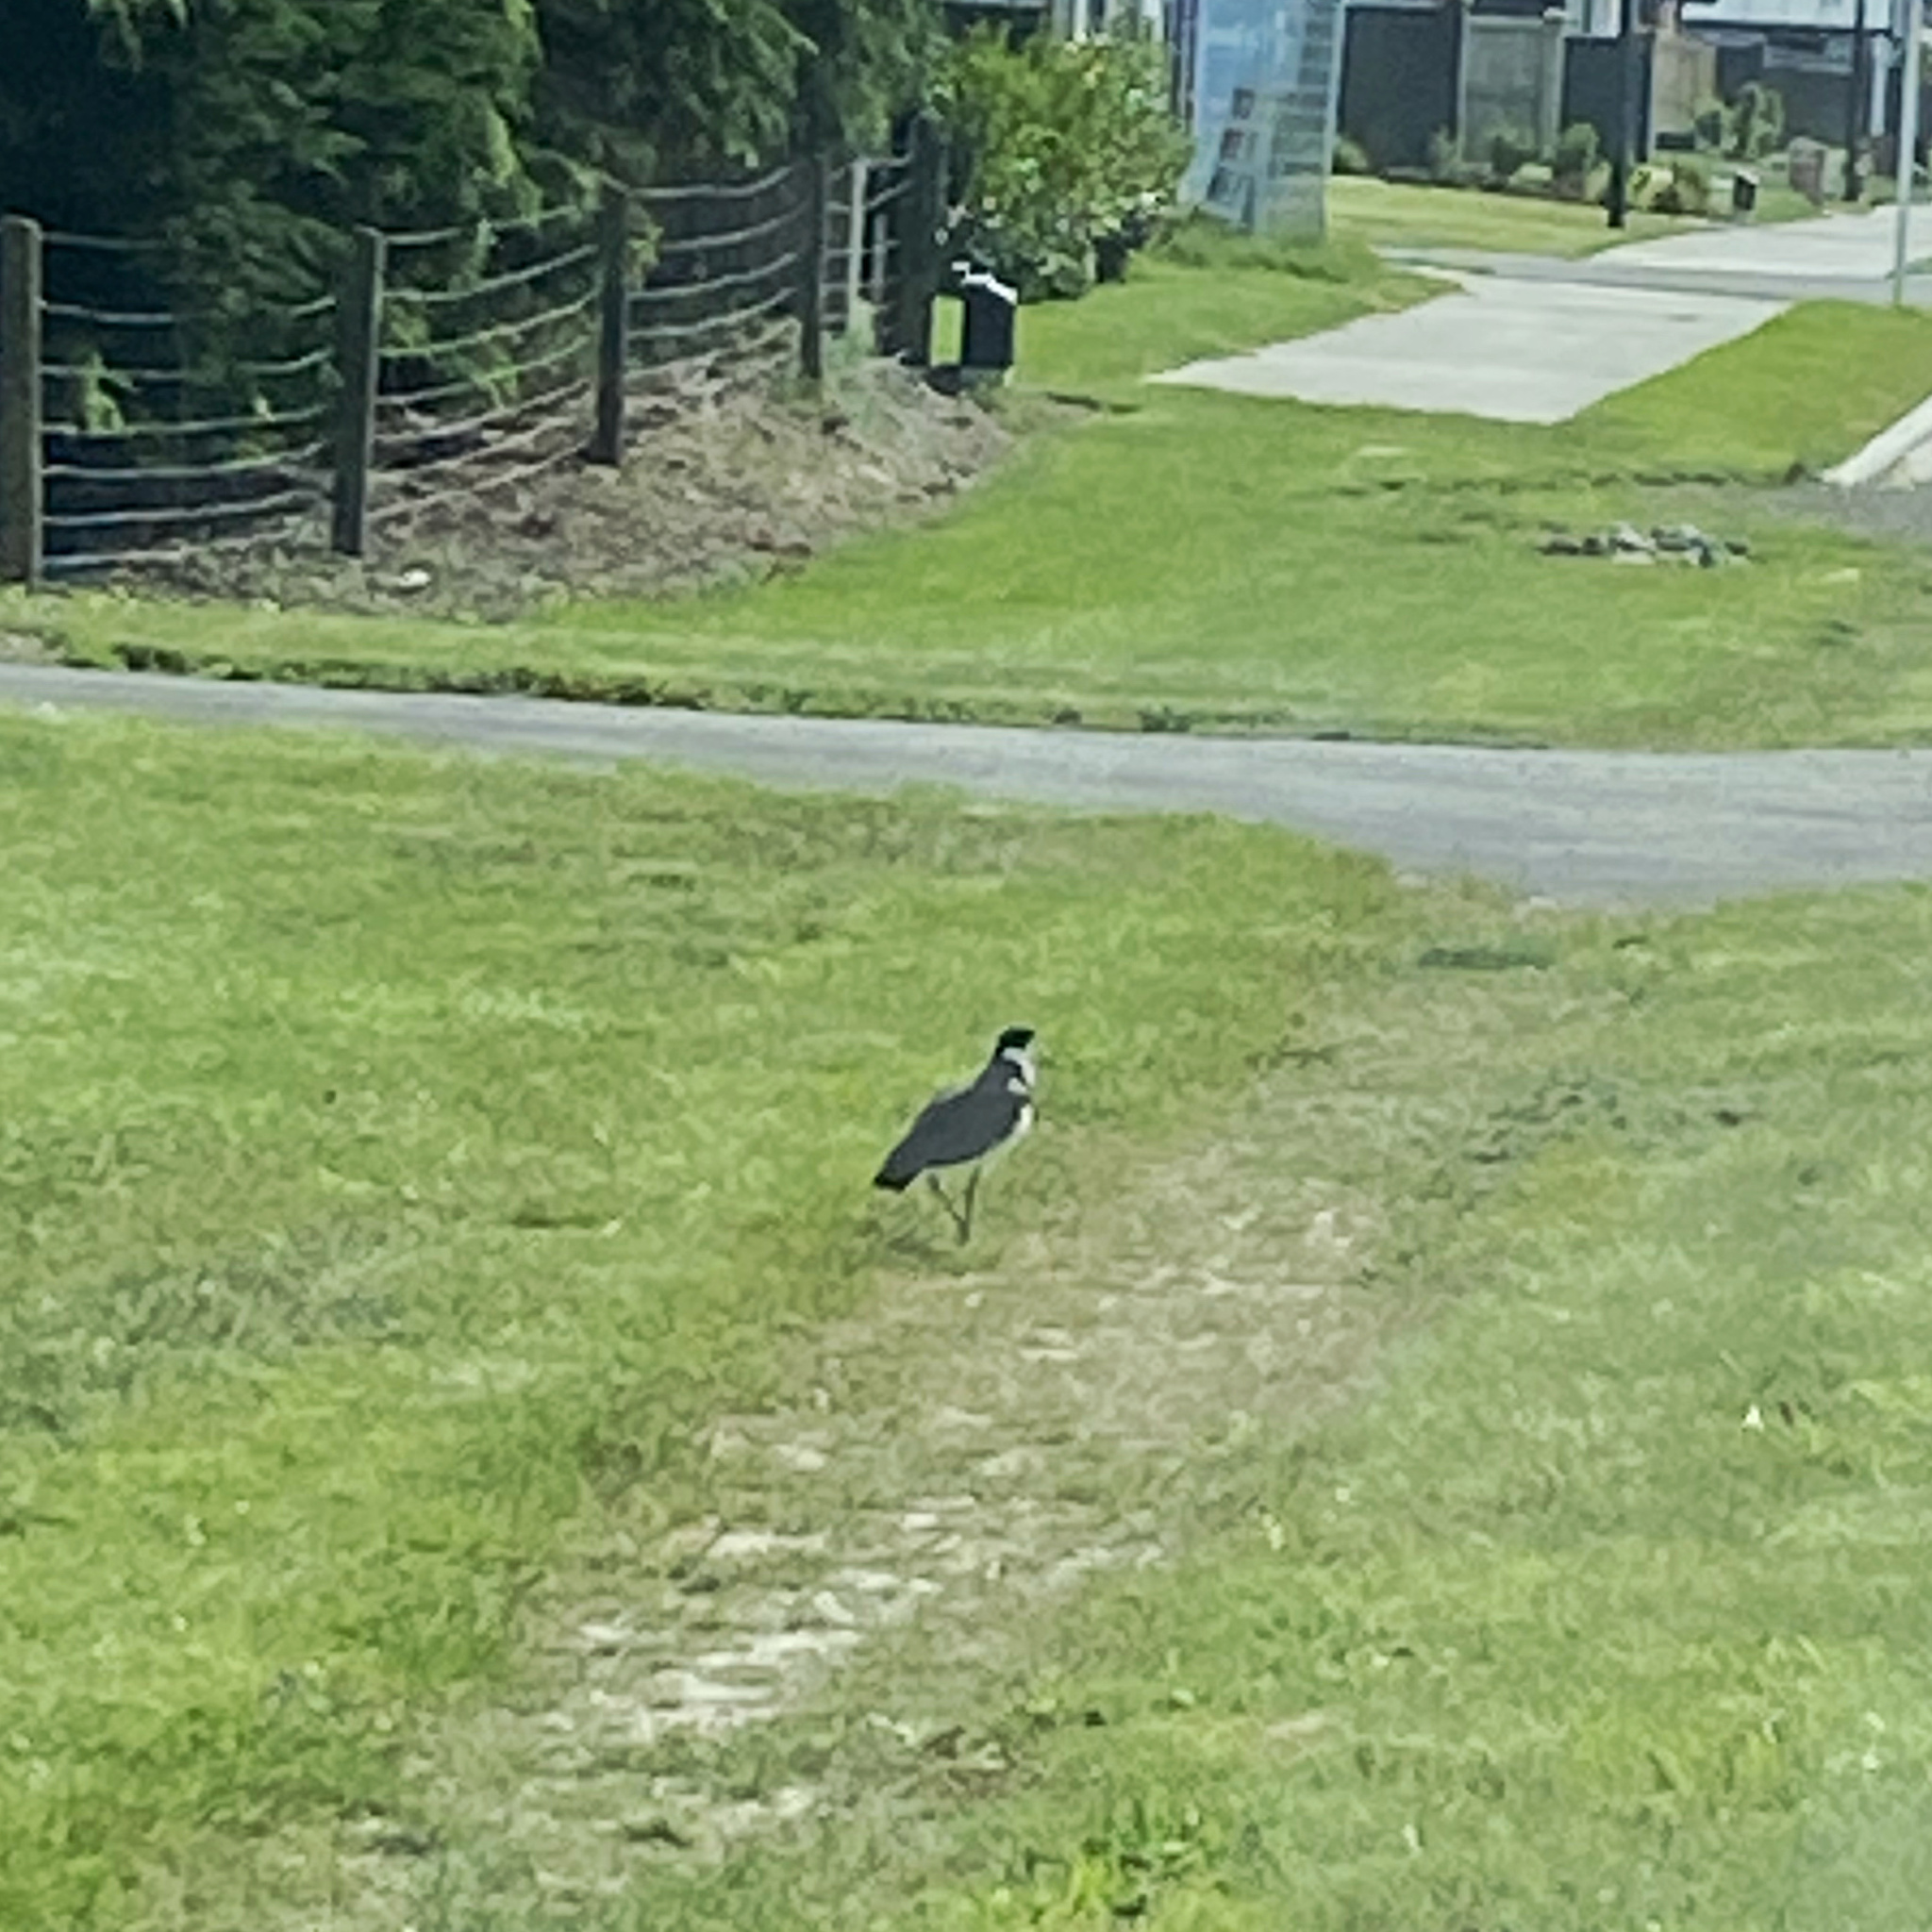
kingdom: Animalia
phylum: Chordata
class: Aves
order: Charadriiformes
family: Charadriidae
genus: Vanellus
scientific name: Vanellus miles
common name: Masked lapwing
